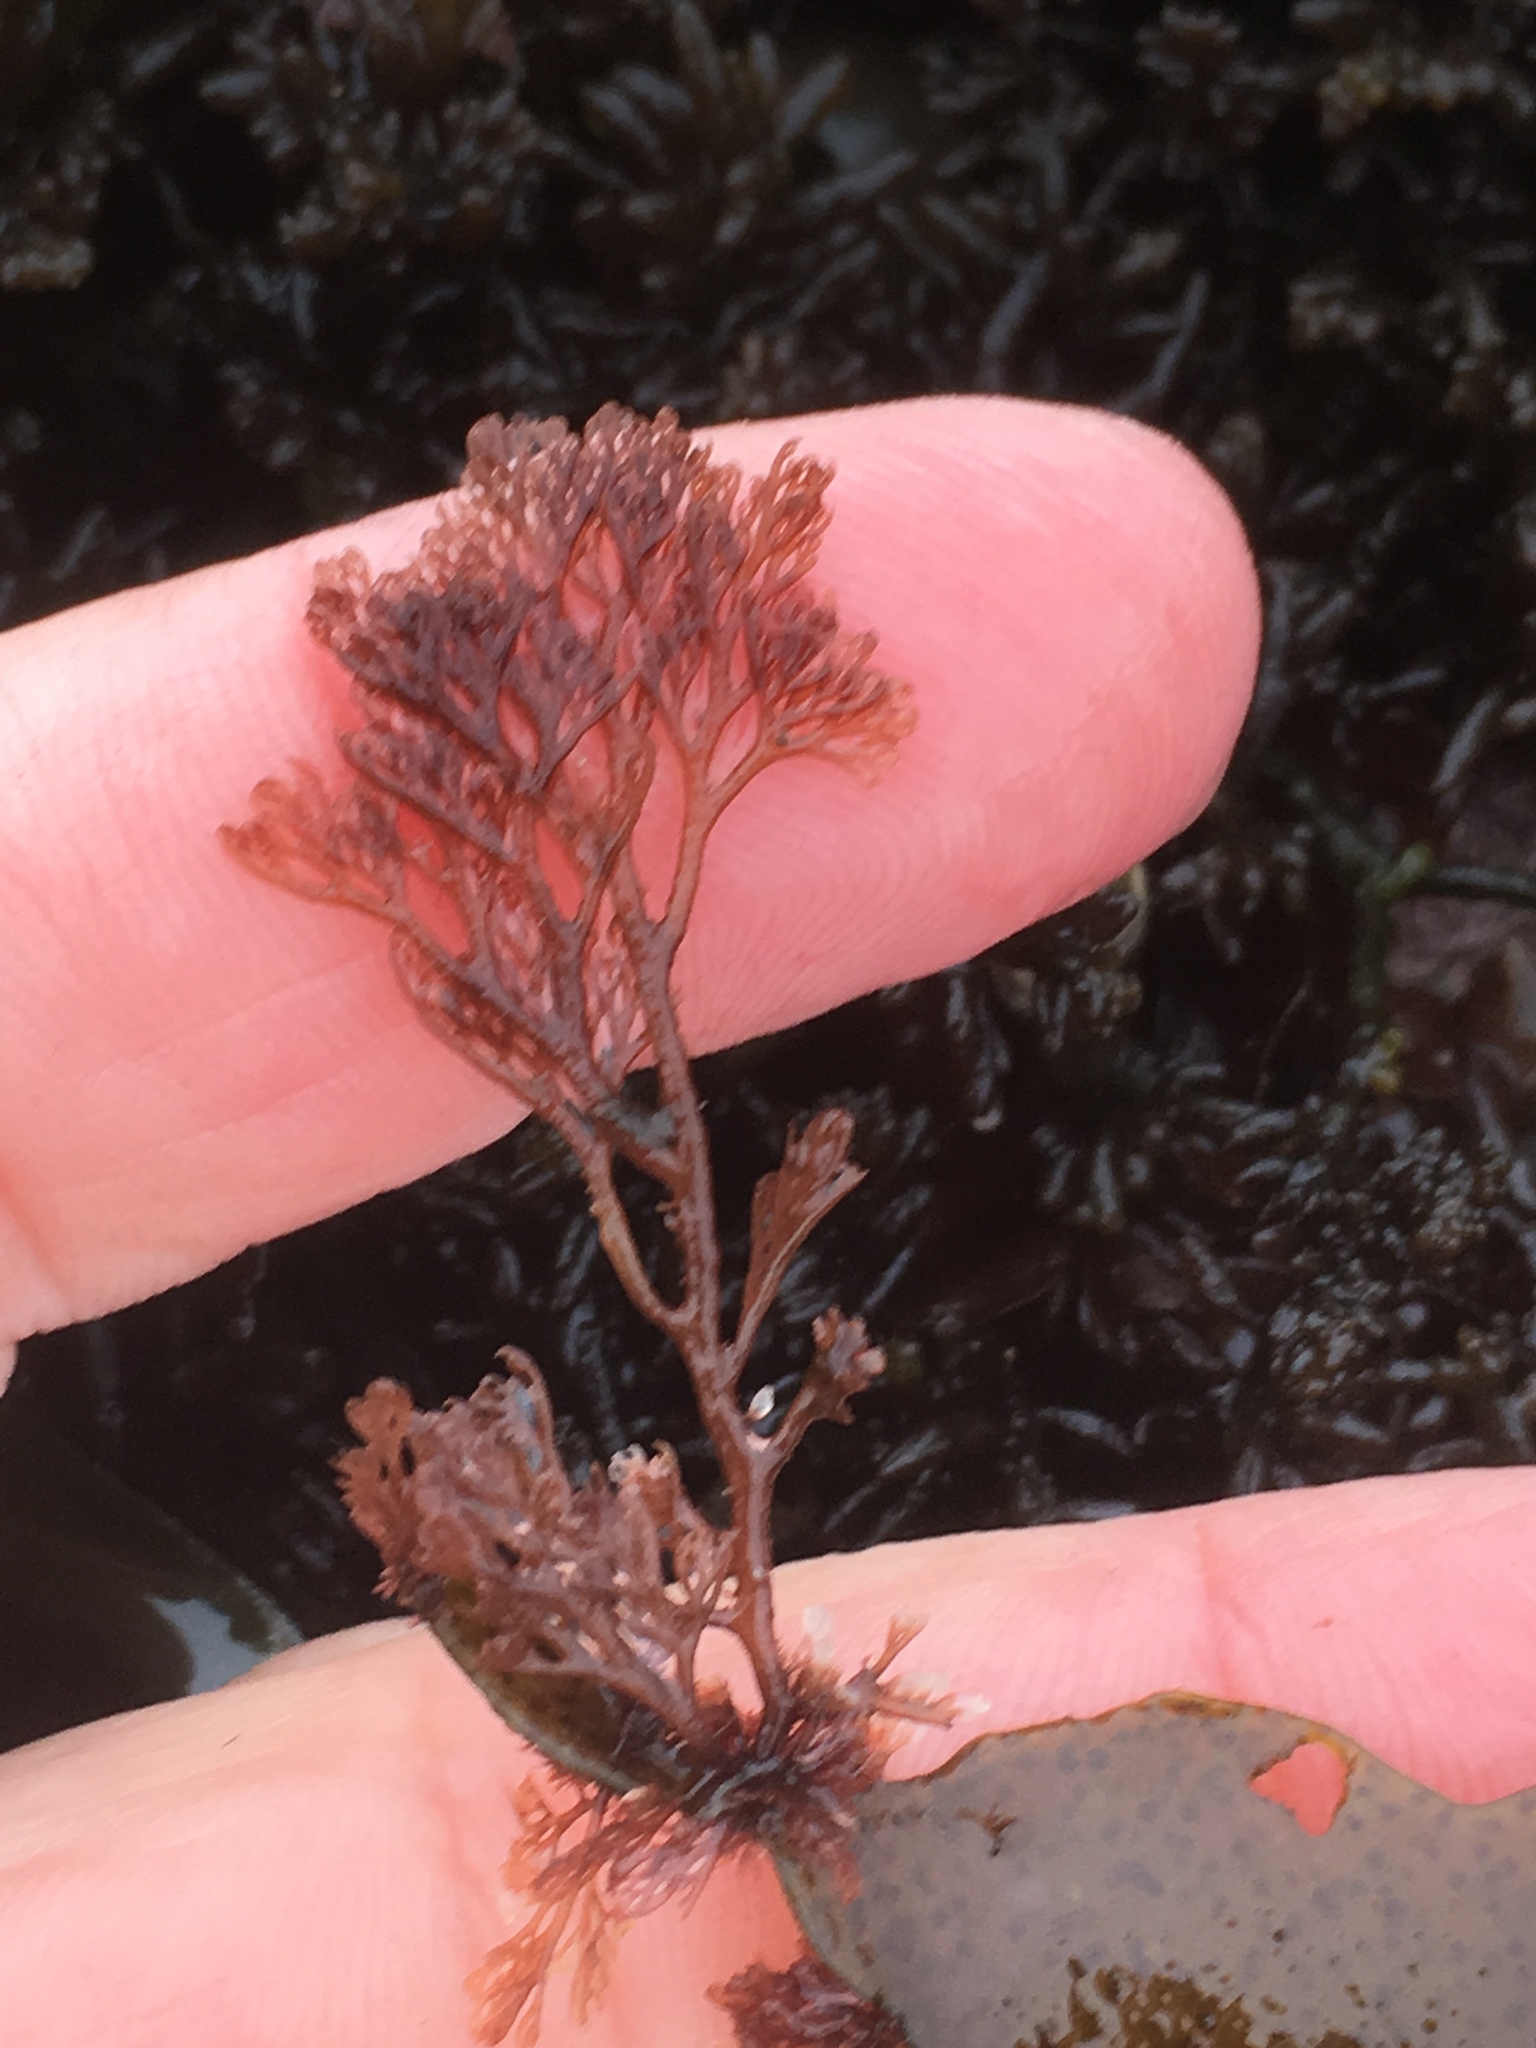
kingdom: Plantae
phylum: Rhodophyta
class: Florideophyceae
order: Ceramiales
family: Ceramiaceae
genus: Microcladia
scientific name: Microcladia coulteri
